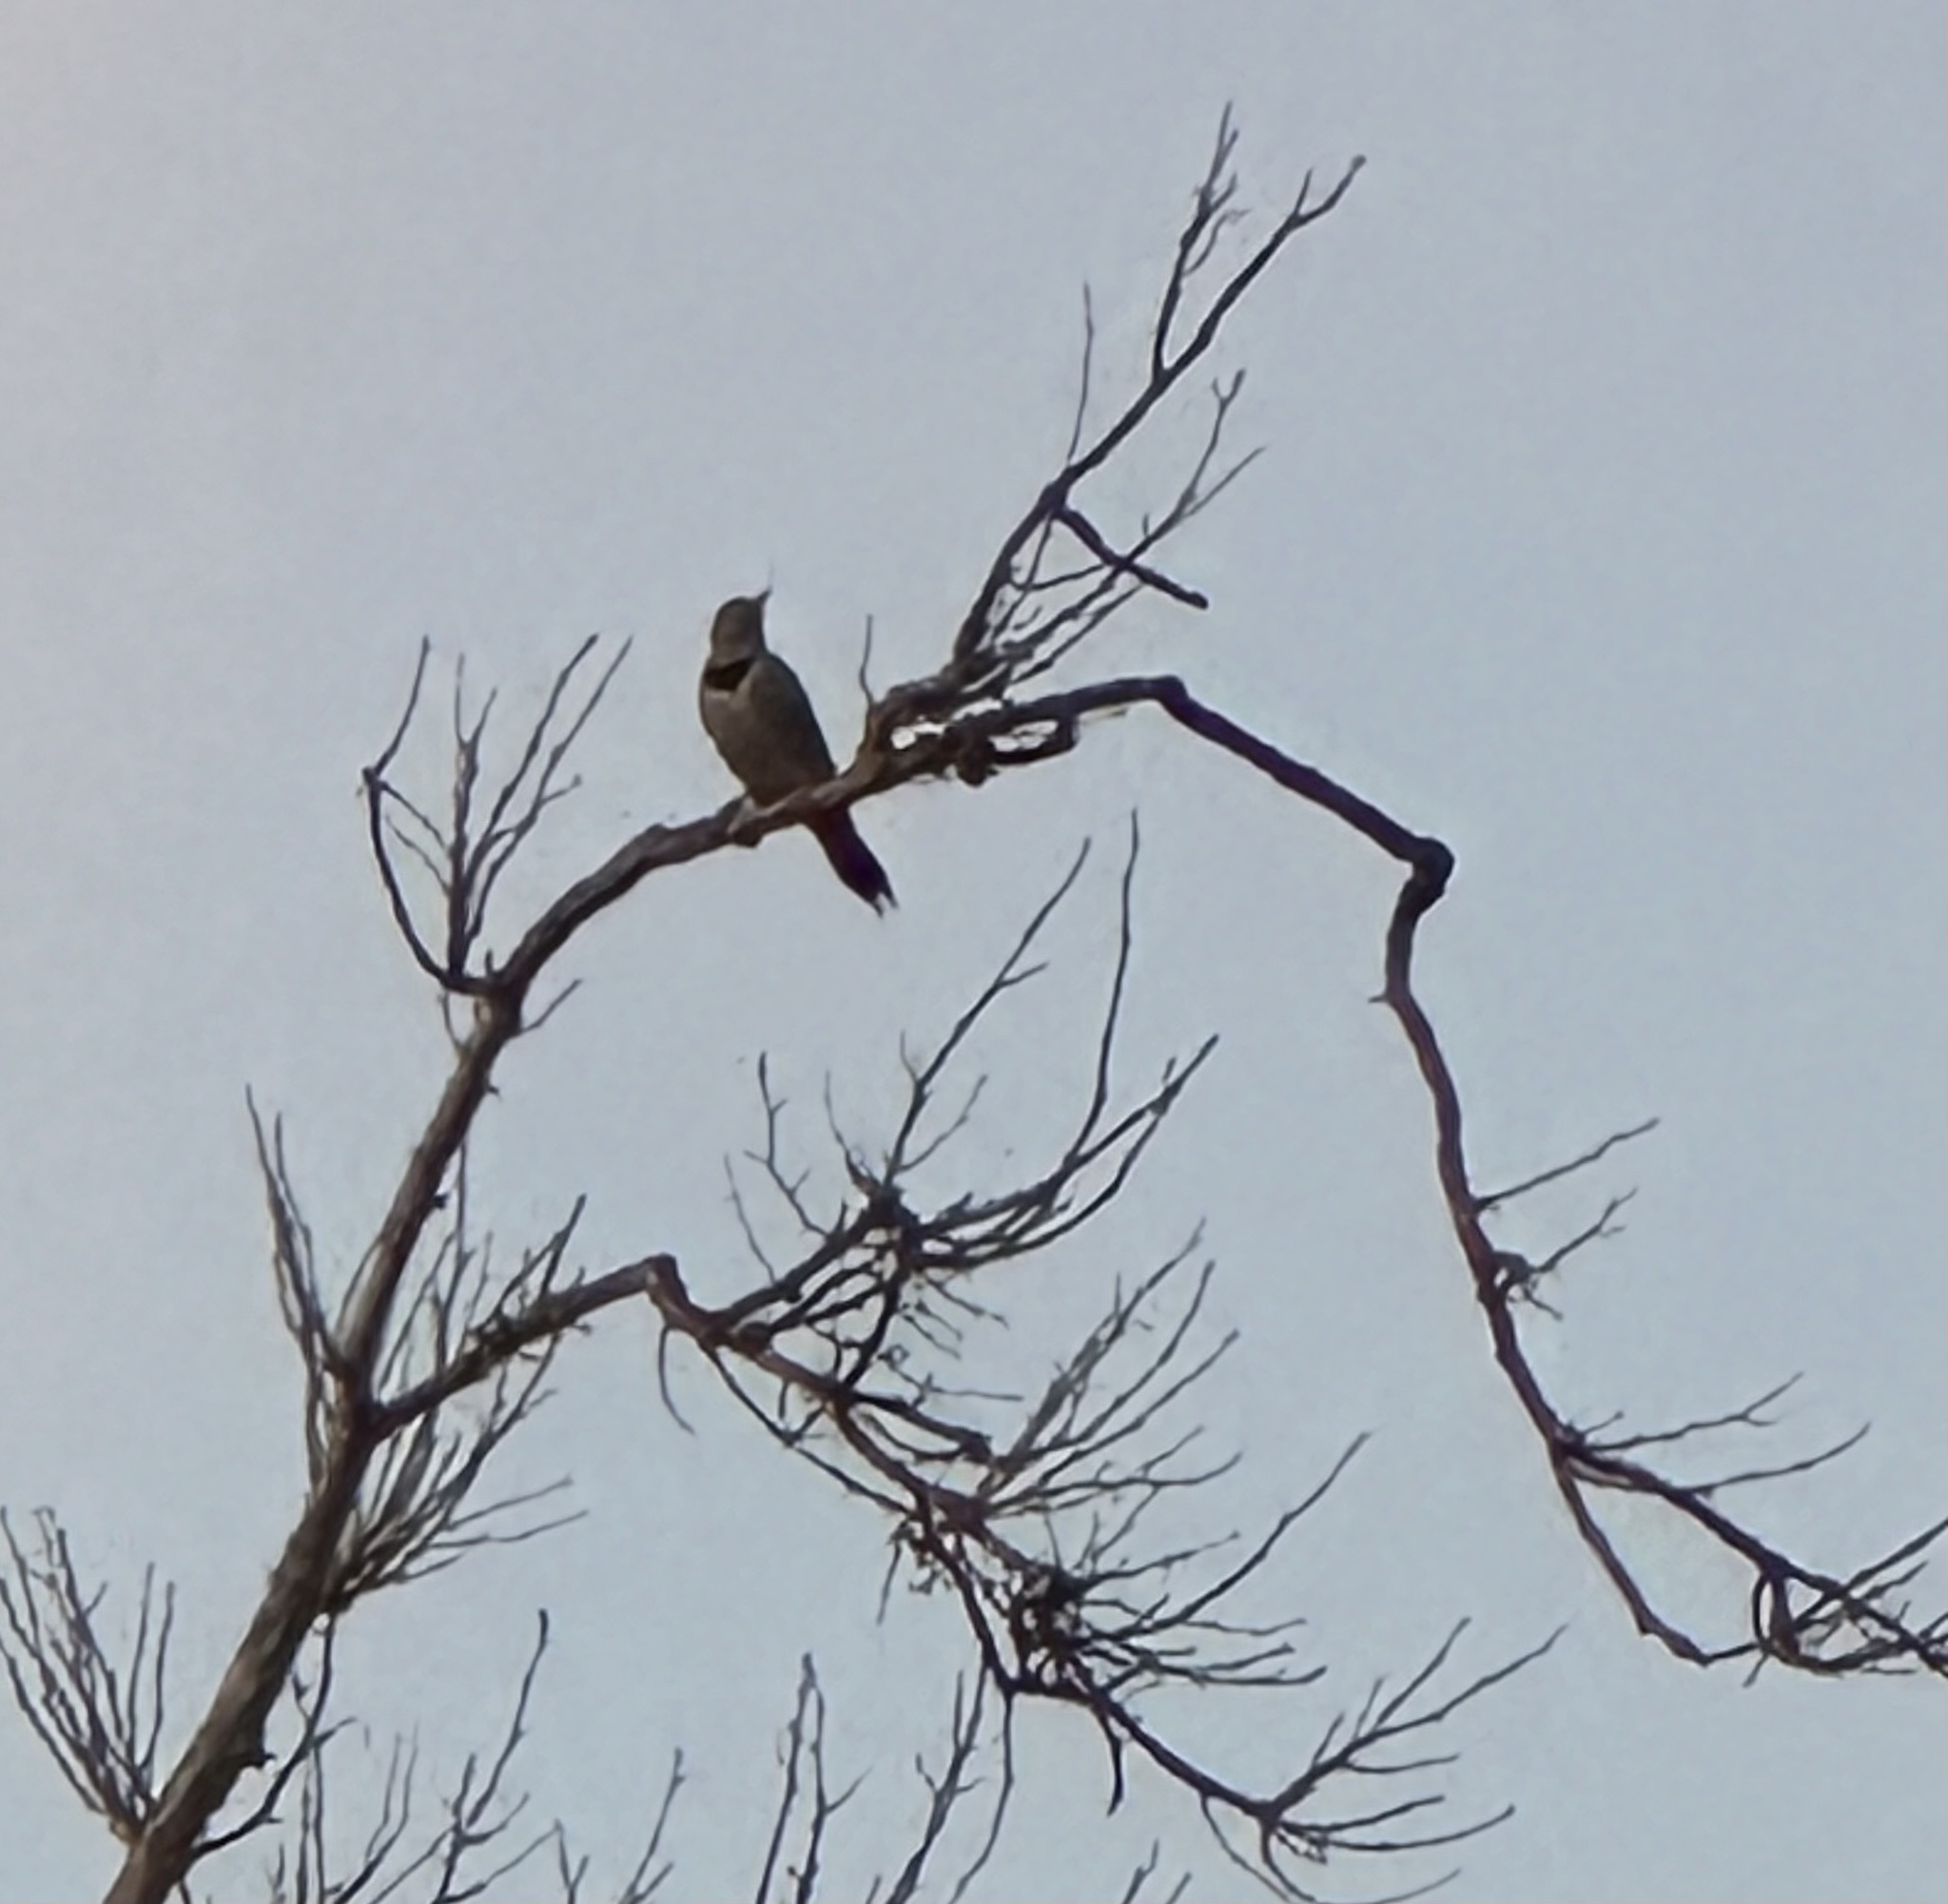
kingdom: Animalia
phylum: Chordata
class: Aves
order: Piciformes
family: Picidae
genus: Colaptes
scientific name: Colaptes auratus
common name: Northern flicker
